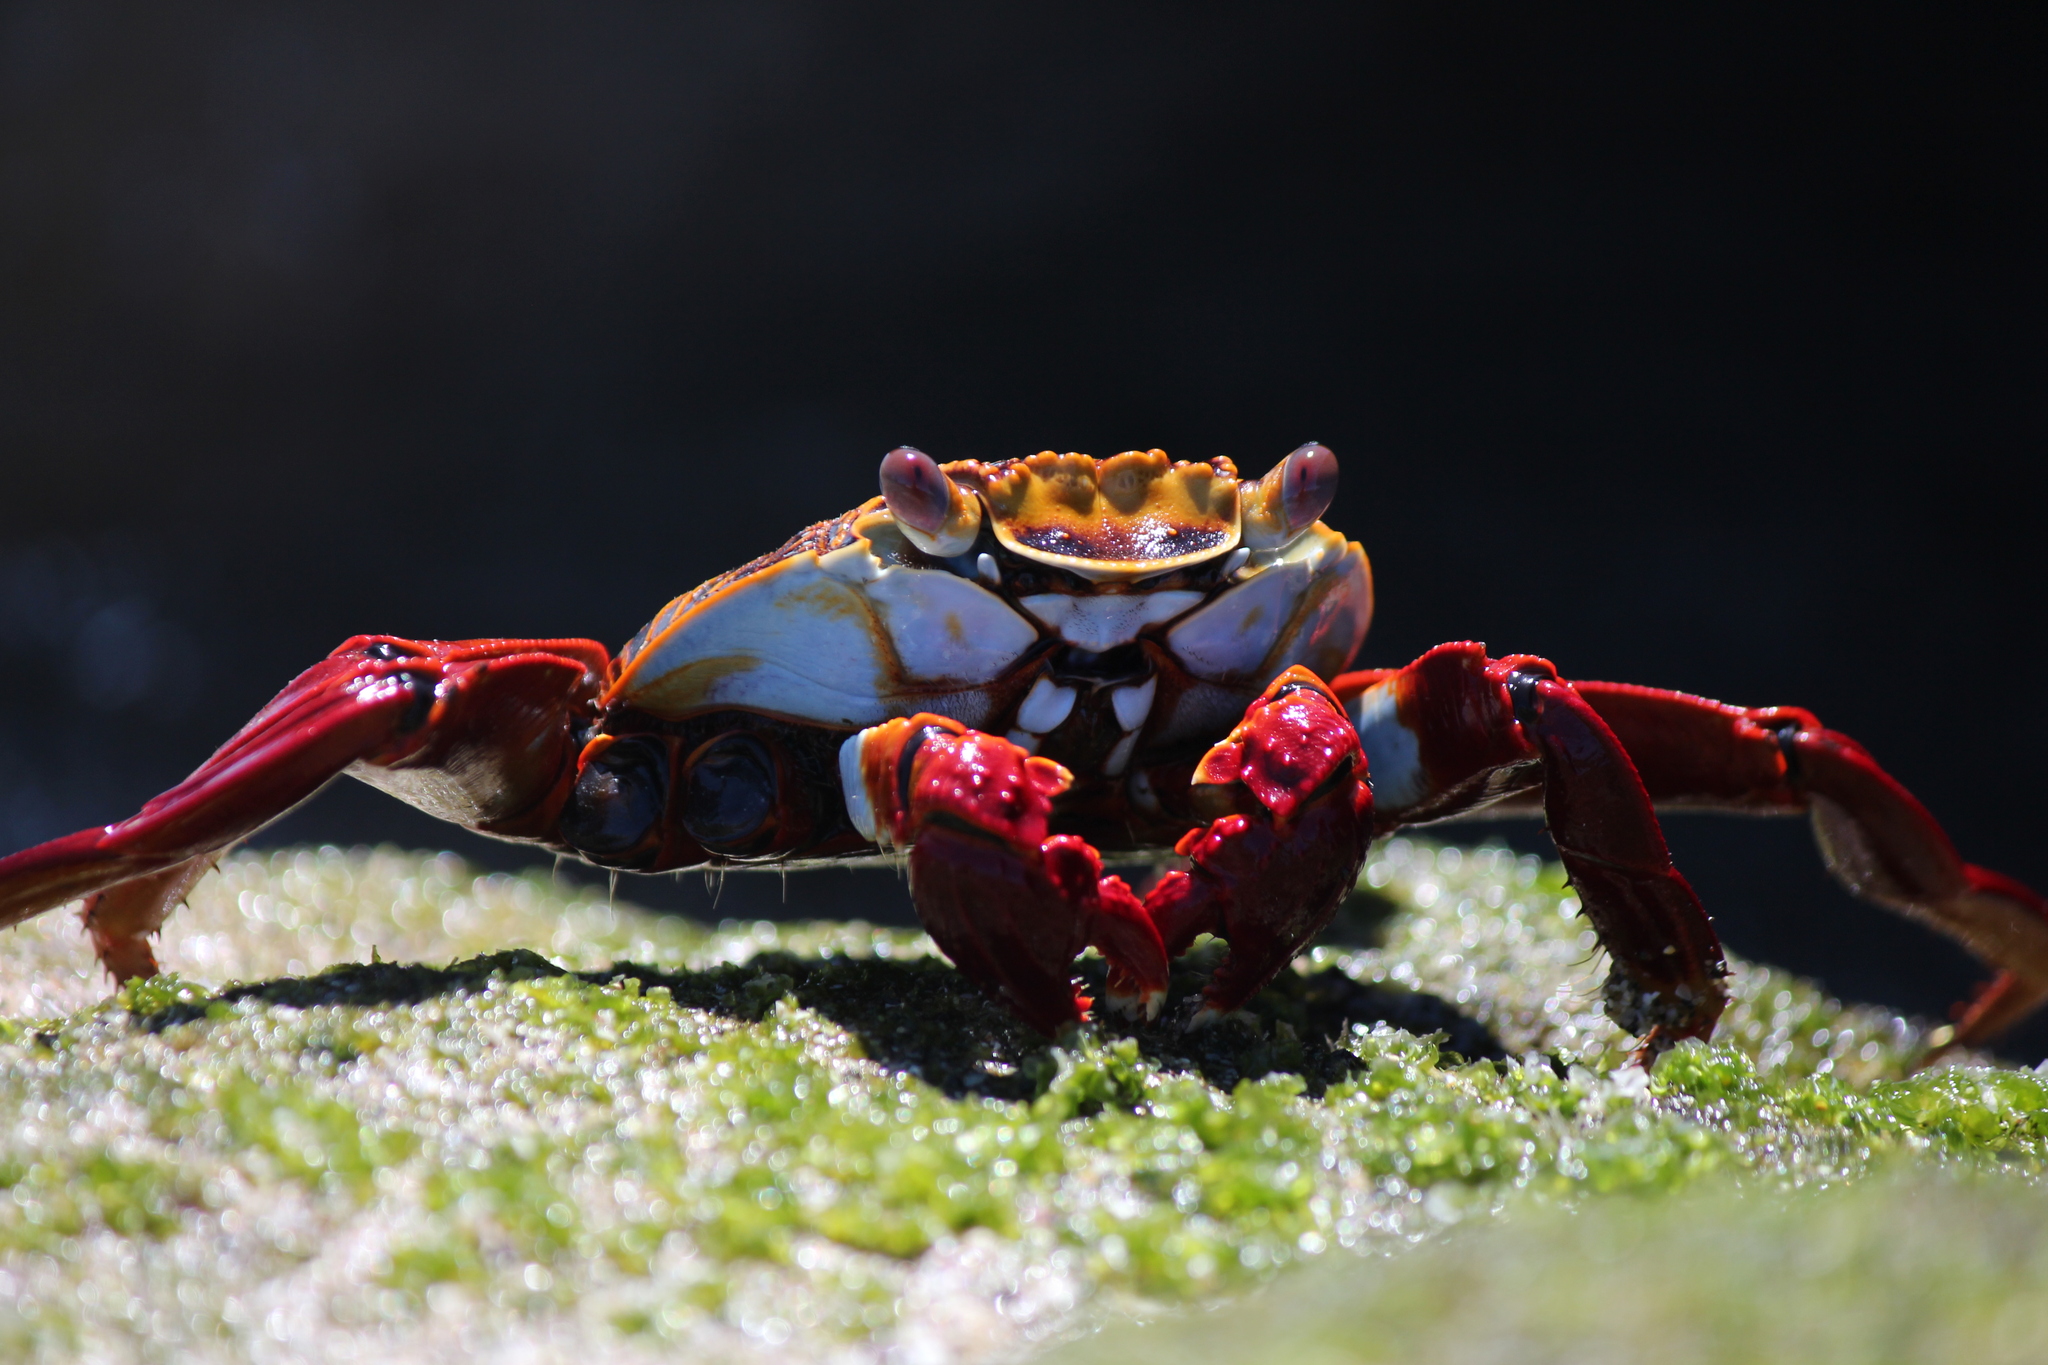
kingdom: Animalia
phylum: Arthropoda
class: Malacostraca
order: Decapoda
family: Grapsidae
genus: Grapsus
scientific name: Grapsus grapsus
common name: Sally lightfoot
